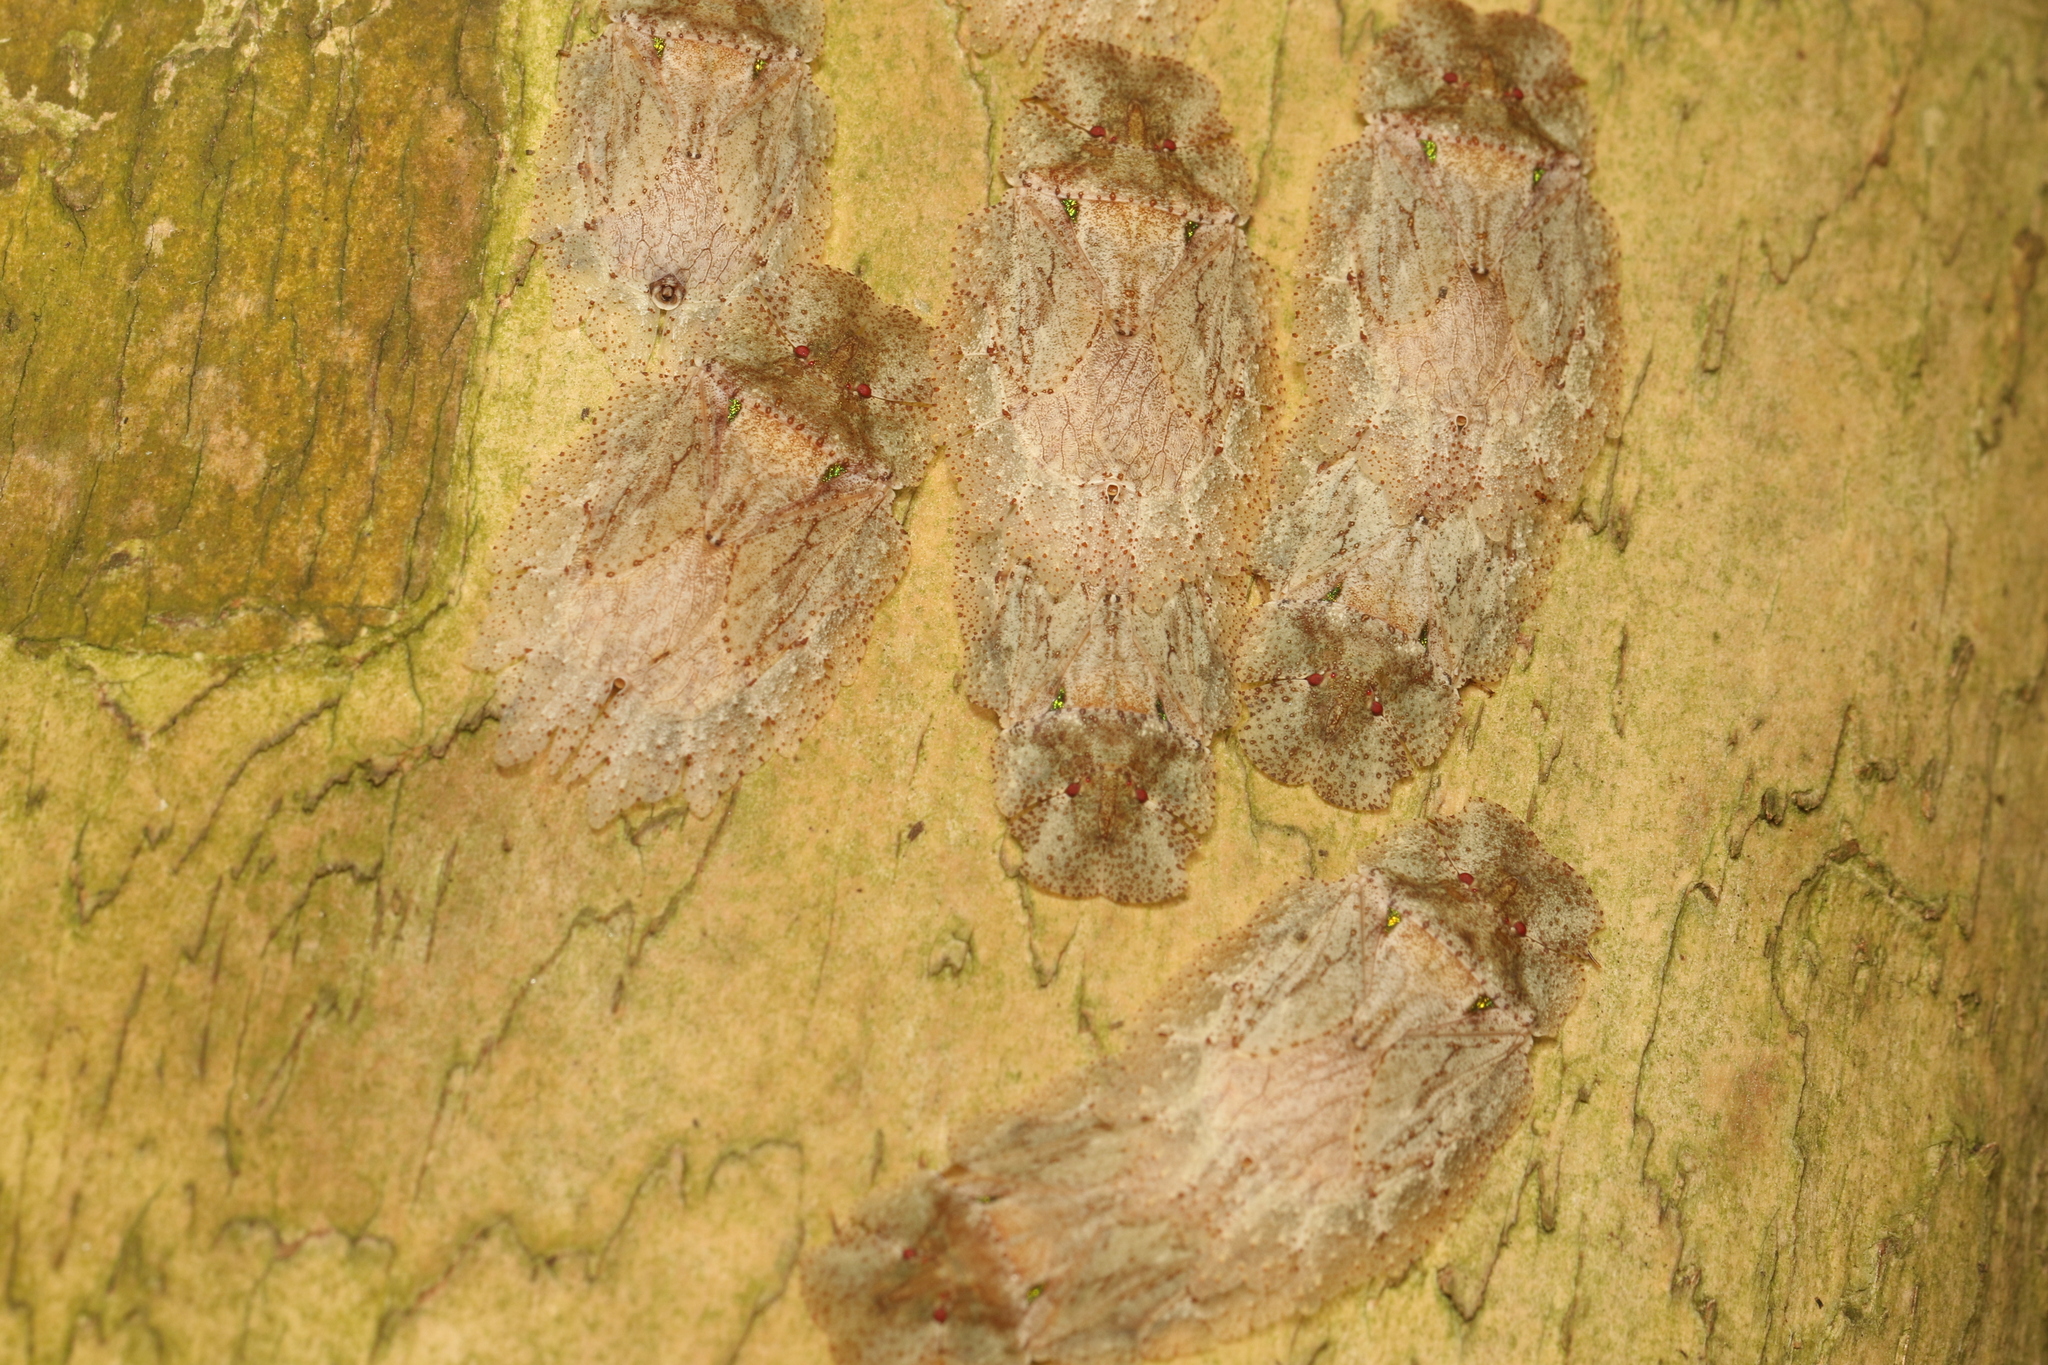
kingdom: Animalia
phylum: Arthropoda
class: Insecta
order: Hemiptera
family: Phleides
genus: Phloea
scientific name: Phloea
